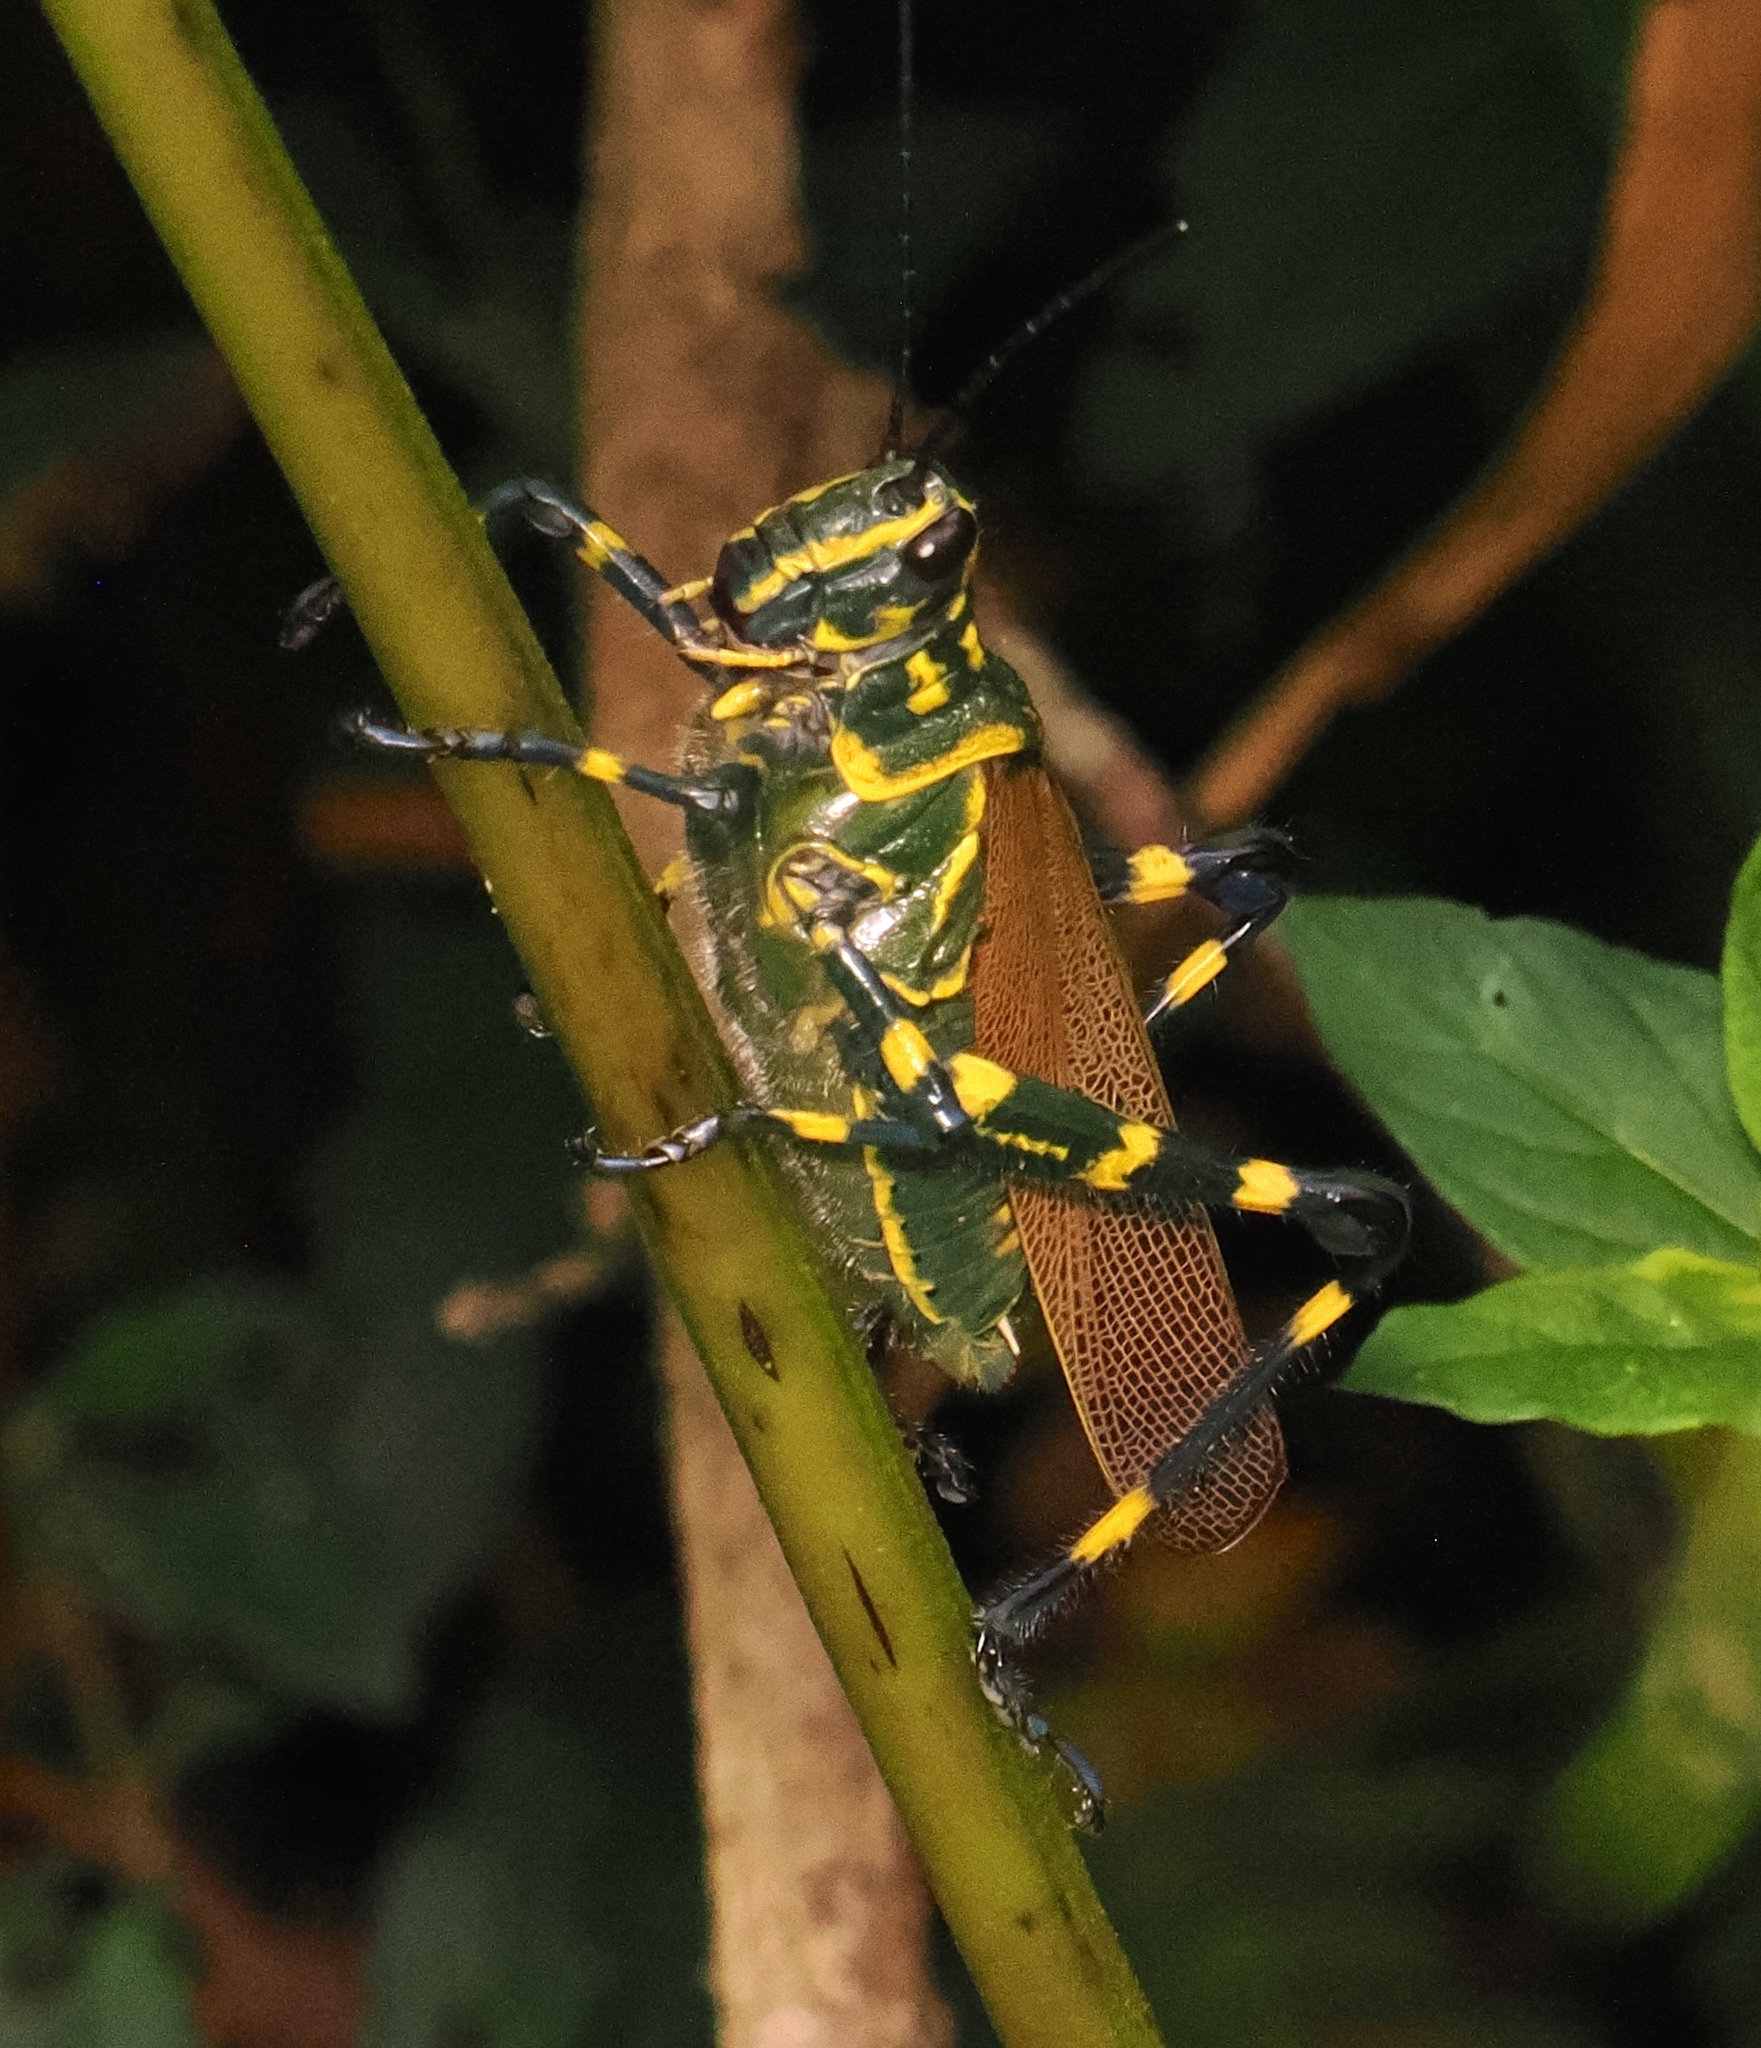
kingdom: Animalia
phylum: Arthropoda
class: Insecta
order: Orthoptera
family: Romaleidae
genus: Chromacris
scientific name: Chromacris speciosa
